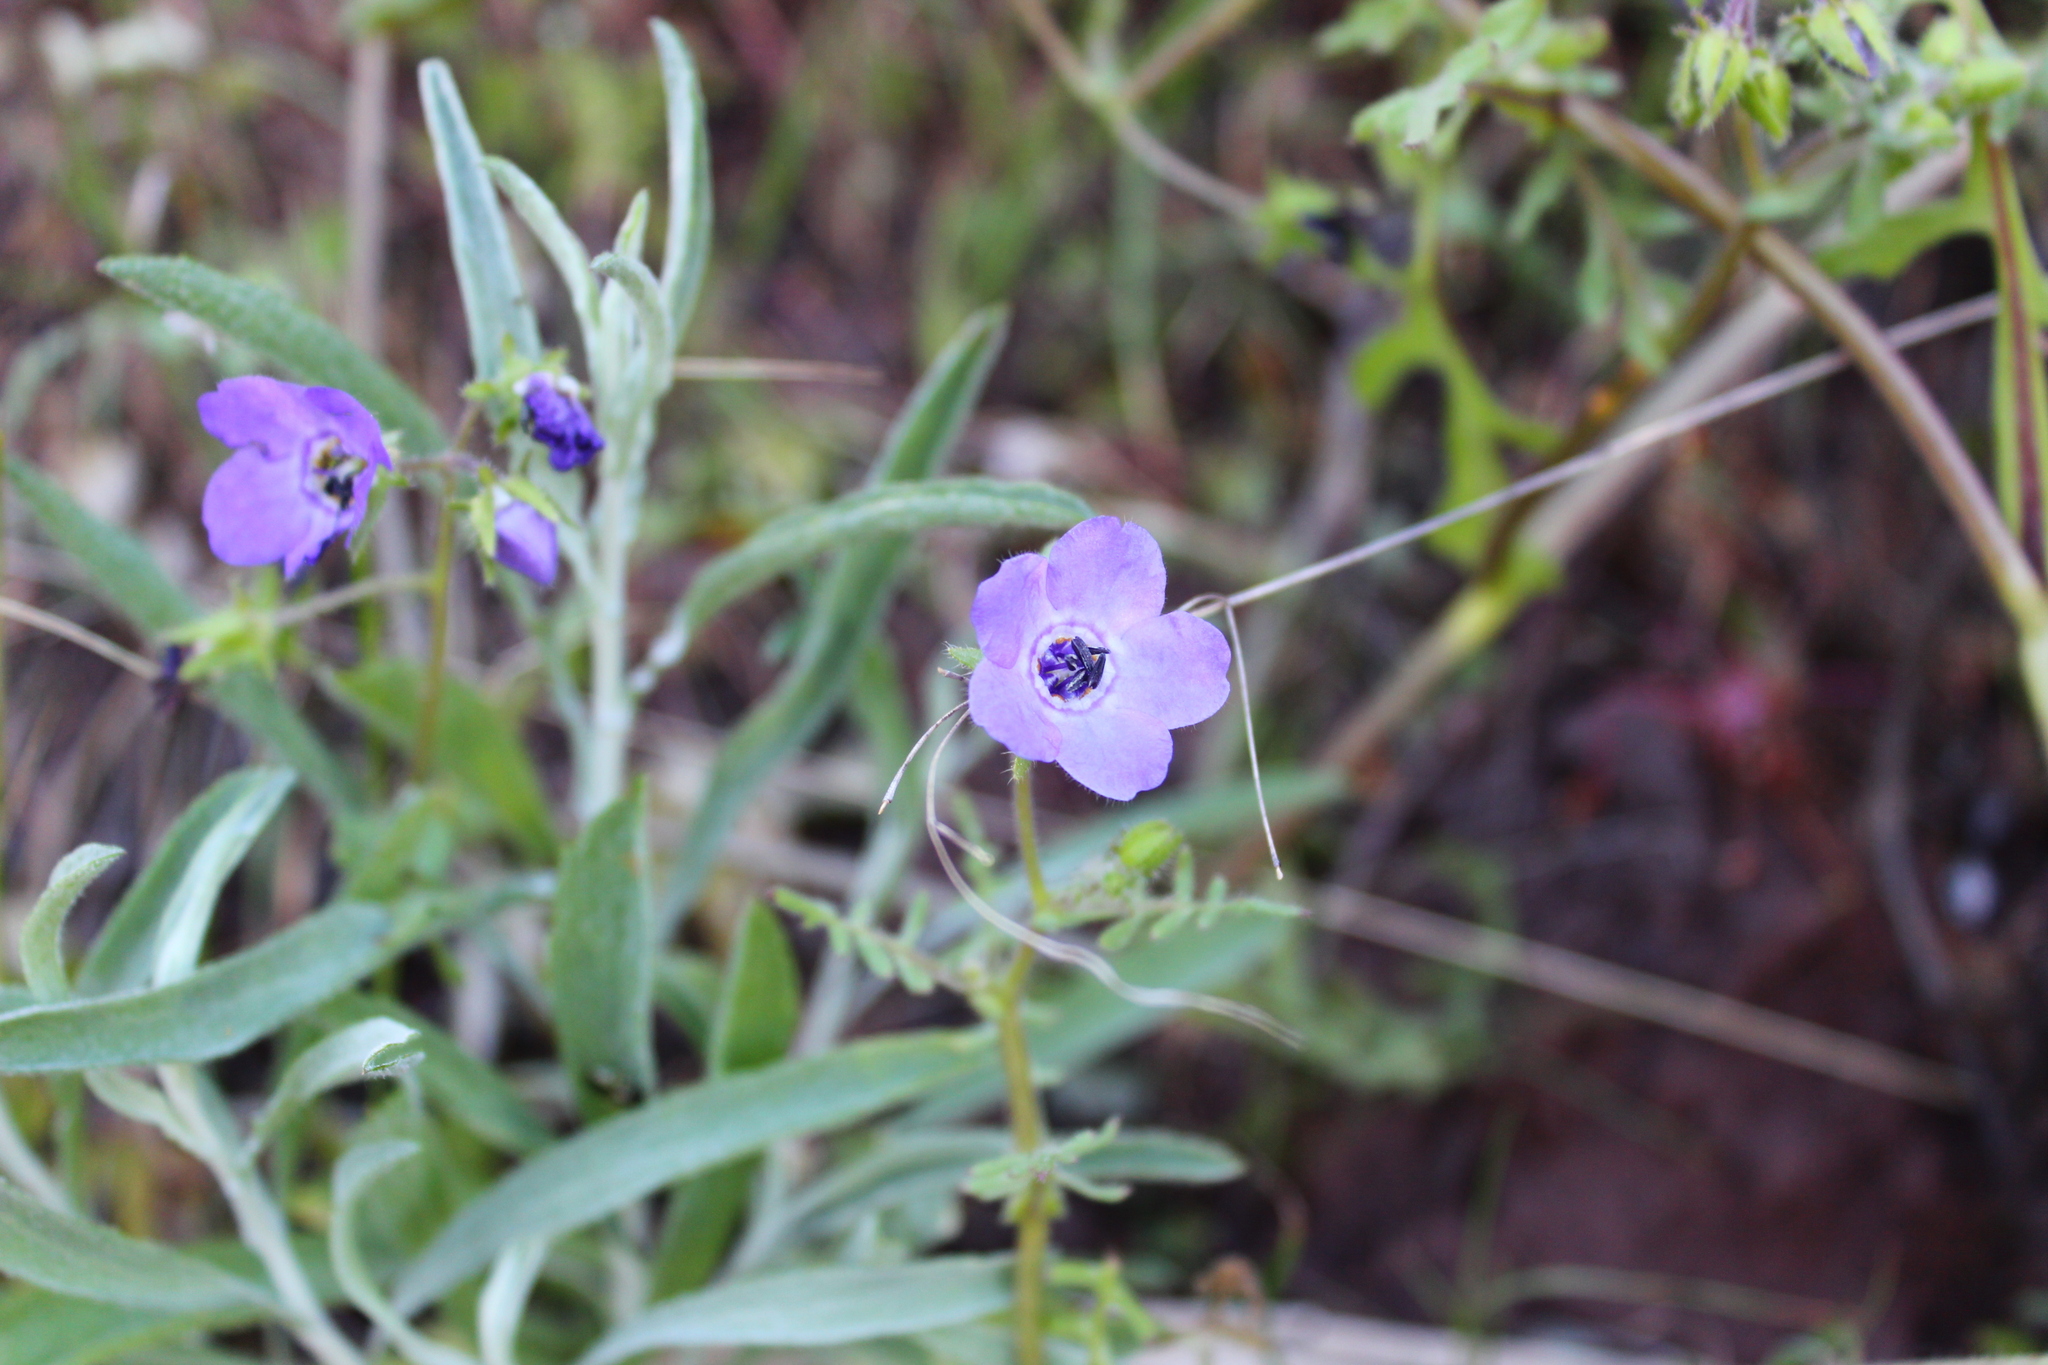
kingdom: Plantae
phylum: Tracheophyta
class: Magnoliopsida
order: Boraginales
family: Hydrophyllaceae
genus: Pholistoma
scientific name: Pholistoma auritum
